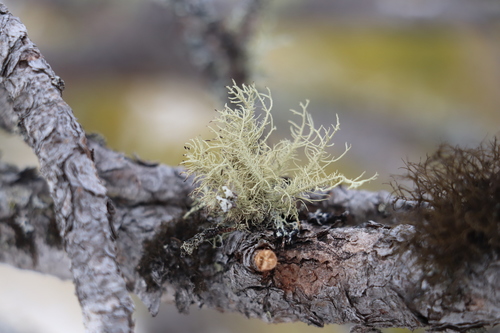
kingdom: Fungi
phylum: Ascomycota
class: Lecanoromycetes
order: Lecanorales
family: Parmeliaceae
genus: Usnea
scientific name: Usnea
